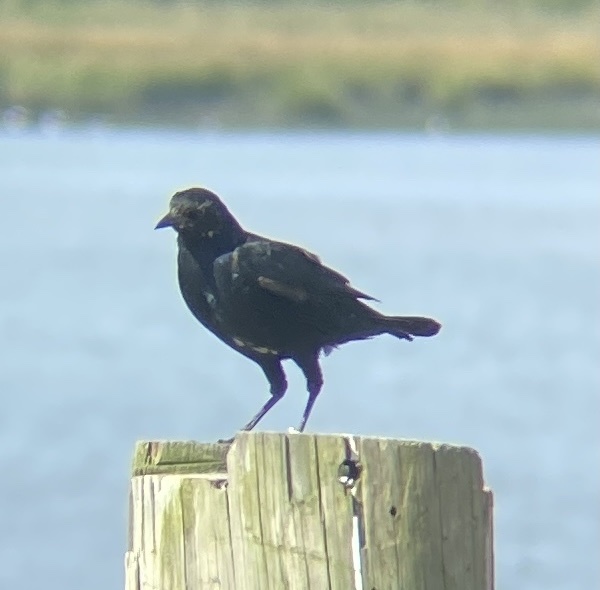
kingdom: Animalia
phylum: Chordata
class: Aves
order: Passeriformes
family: Icteridae
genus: Quiscalus
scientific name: Quiscalus major
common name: Boat-tailed grackle
